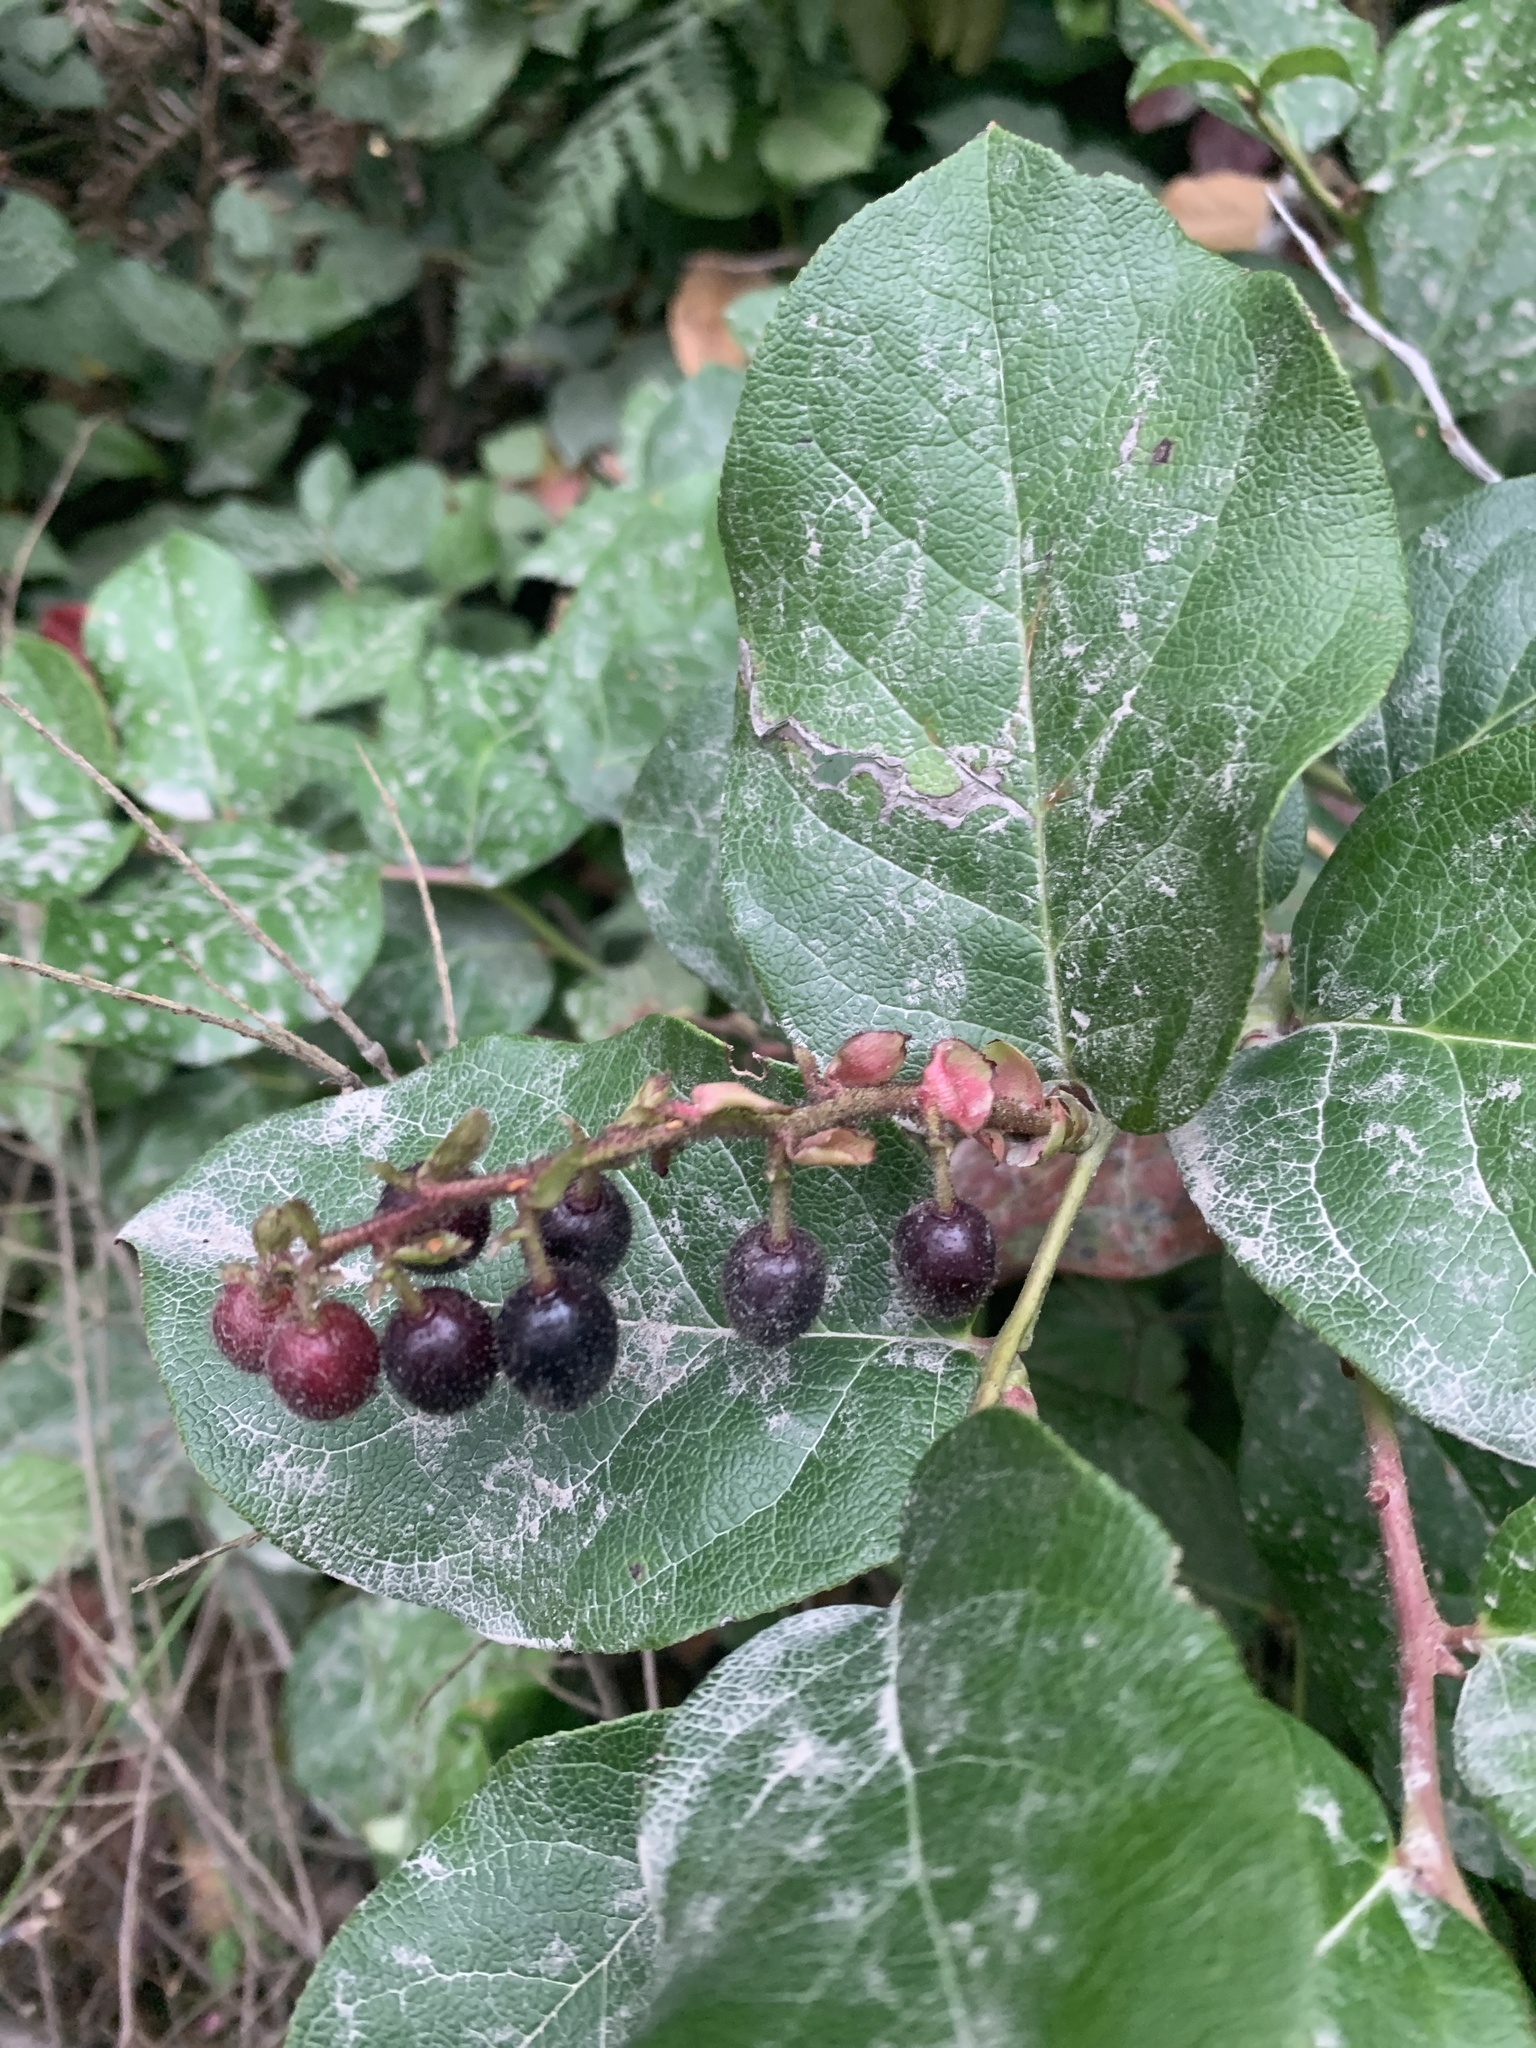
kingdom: Plantae
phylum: Tracheophyta
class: Magnoliopsida
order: Ericales
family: Ericaceae
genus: Gaultheria
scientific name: Gaultheria shallon
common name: Shallon
